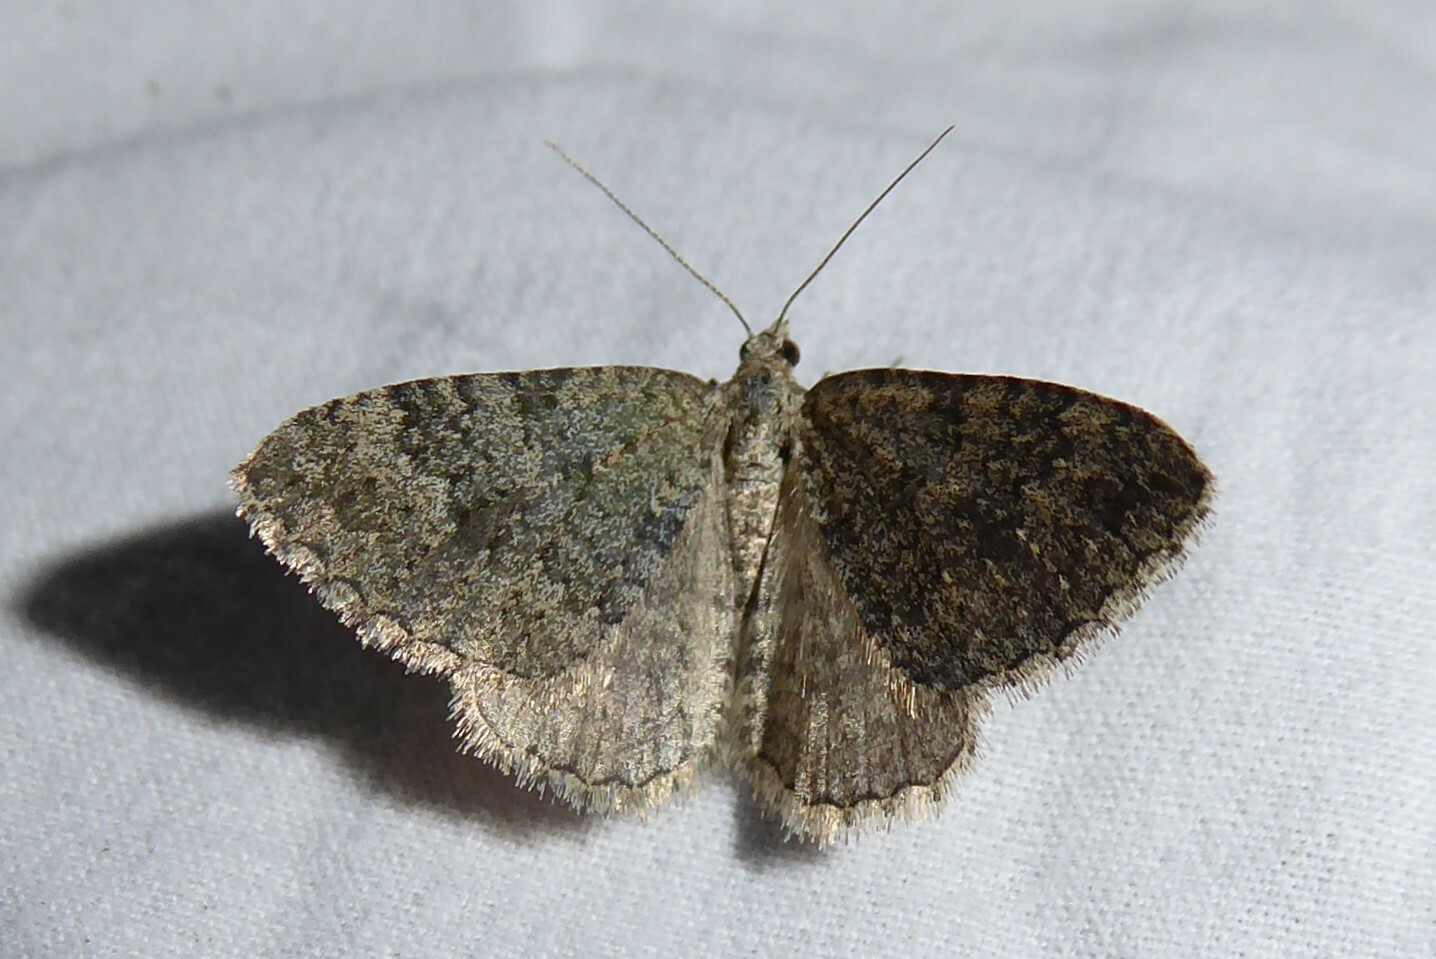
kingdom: Animalia
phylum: Arthropoda
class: Insecta
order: Lepidoptera
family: Geometridae
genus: Helastia
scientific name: Helastia corcularia
